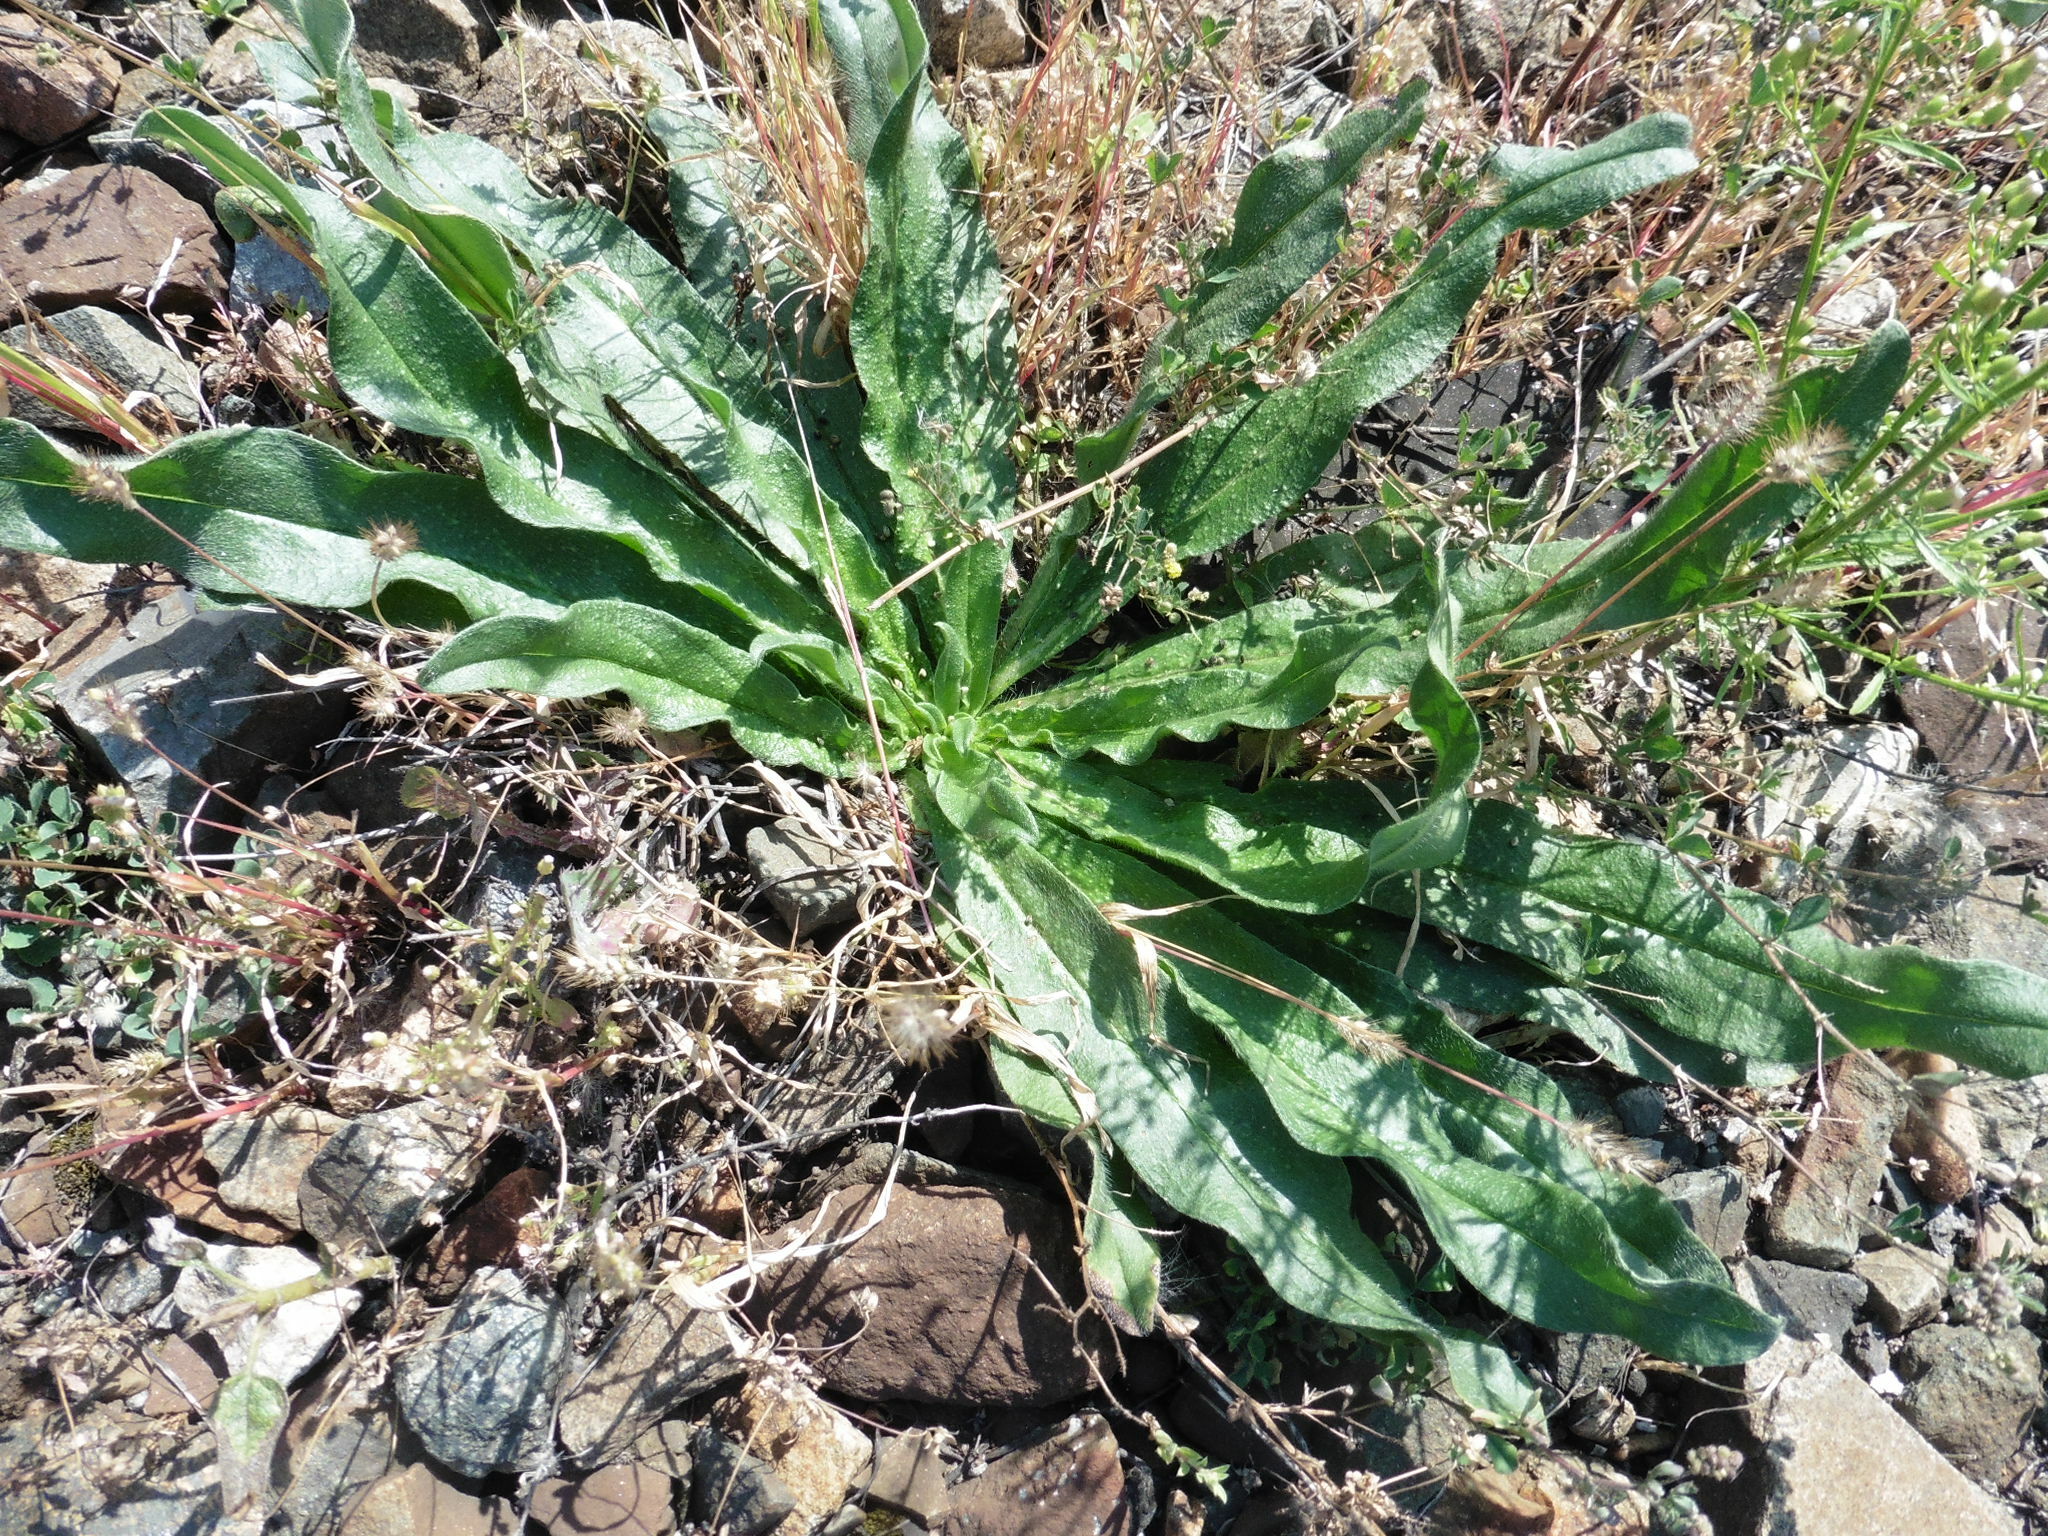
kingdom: Plantae
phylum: Tracheophyta
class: Magnoliopsida
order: Boraginales
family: Boraginaceae
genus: Echium
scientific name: Echium vulgare
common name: Common viper's bugloss
